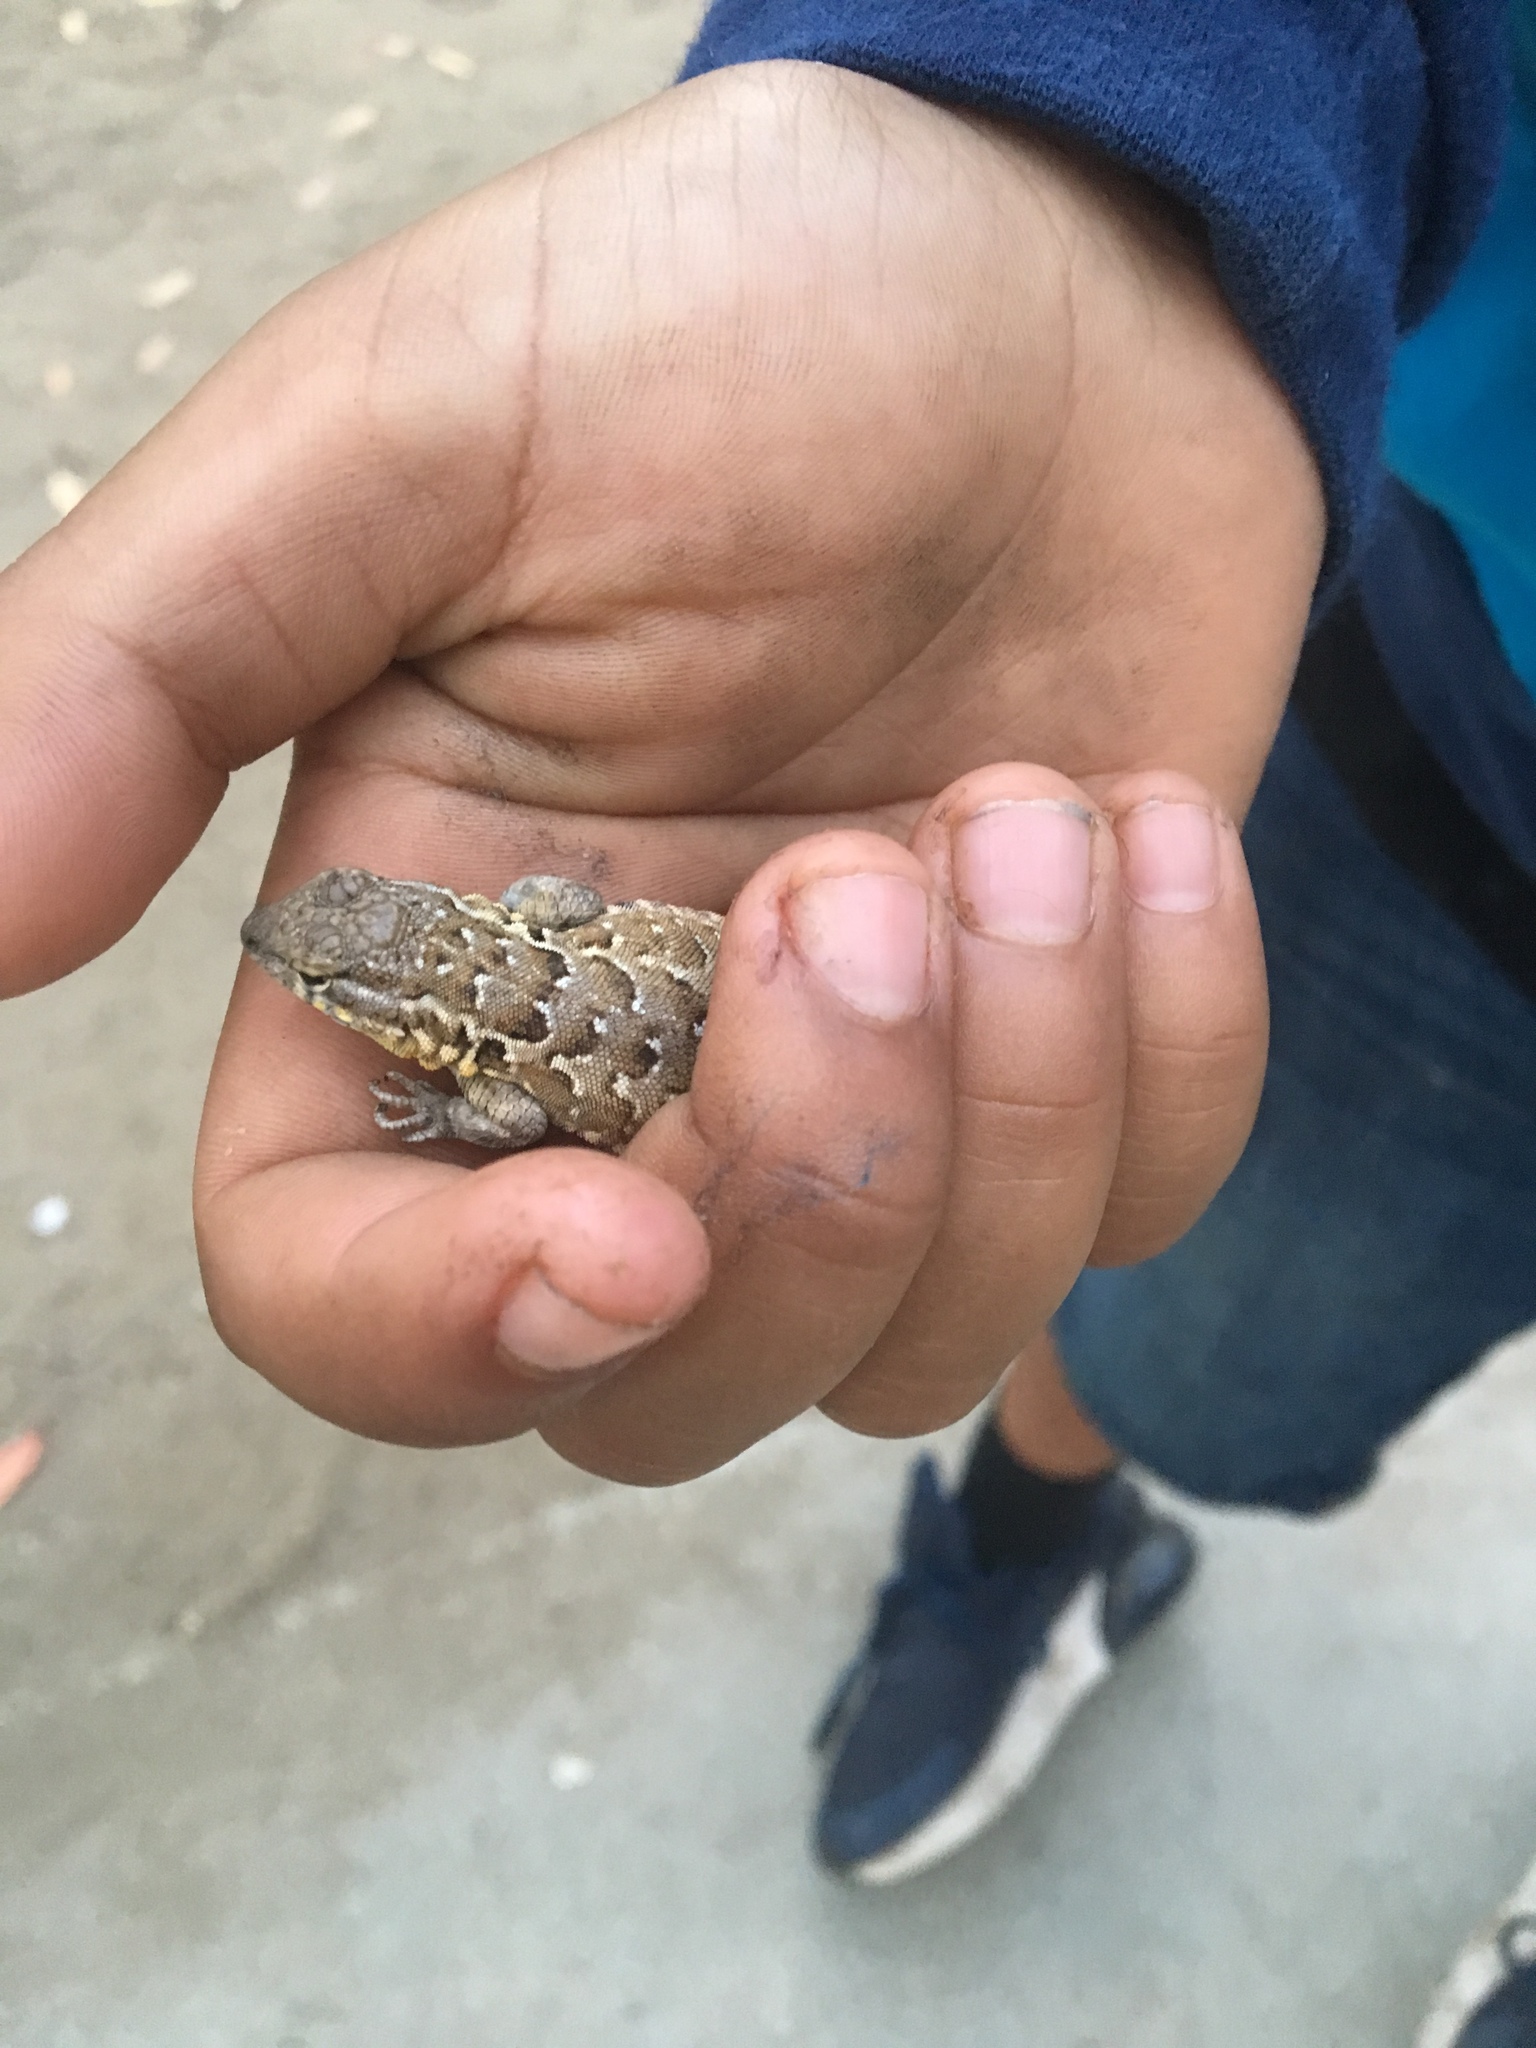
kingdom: Animalia
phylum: Chordata
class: Squamata
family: Phrynosomatidae
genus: Uta
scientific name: Uta stansburiana
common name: Side-blotched lizard
